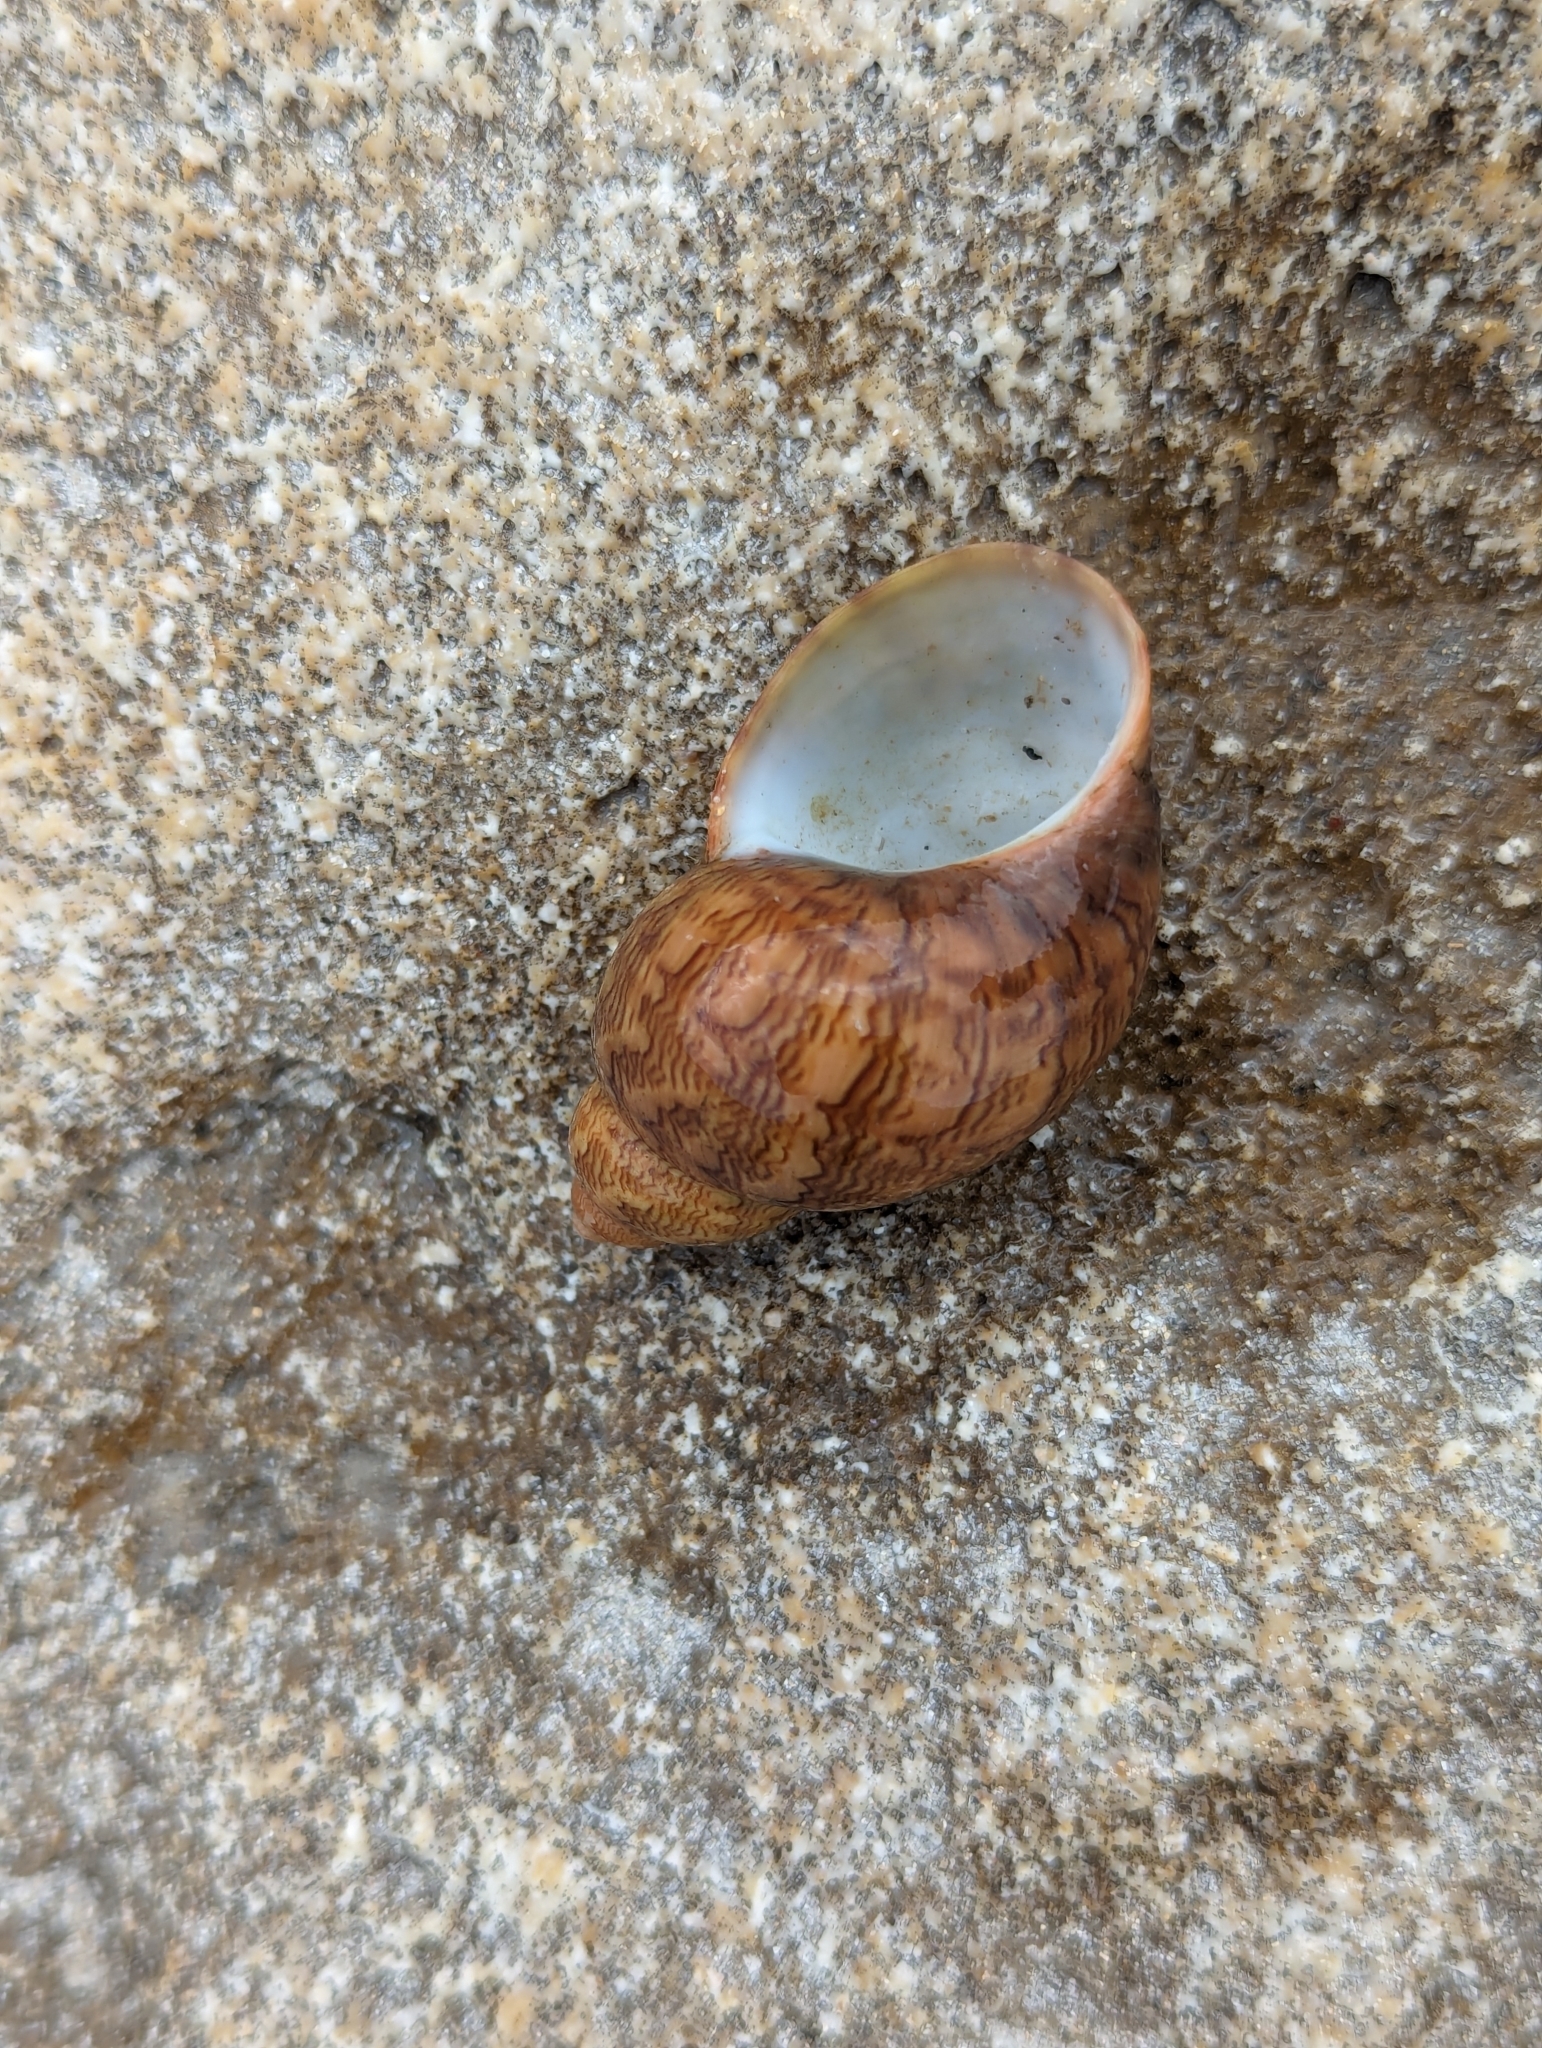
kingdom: Animalia
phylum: Mollusca
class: Gastropoda
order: Trochida
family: Phasianellidae
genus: Phasianella
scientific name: Phasianella ventricosa
